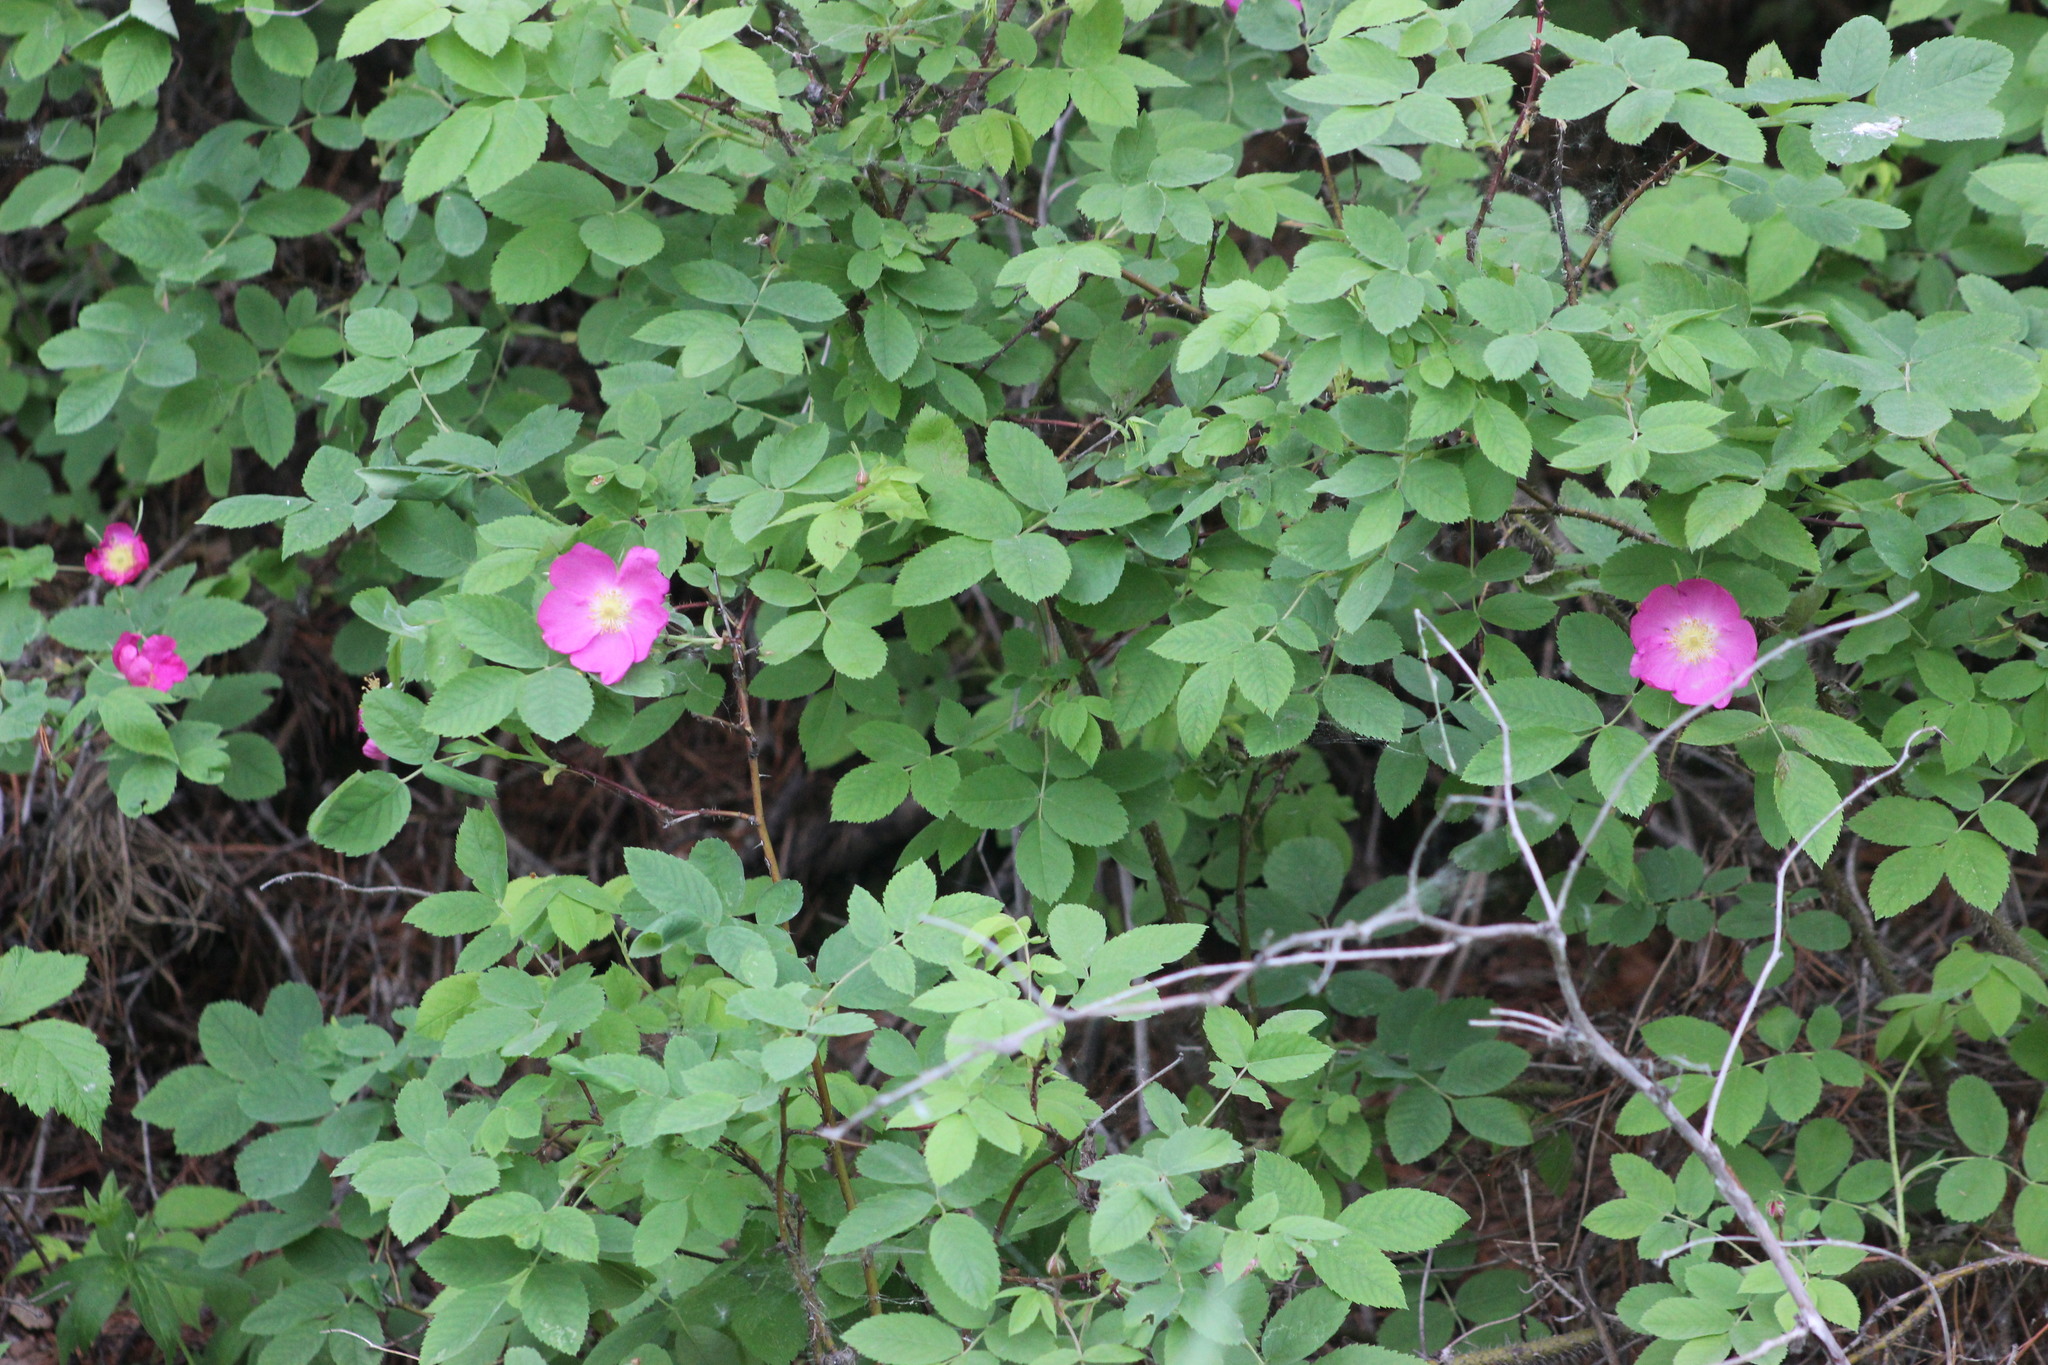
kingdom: Plantae
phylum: Tracheophyta
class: Magnoliopsida
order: Rosales
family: Rosaceae
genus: Rosa
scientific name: Rosa majalis
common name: Cinnamon rose
